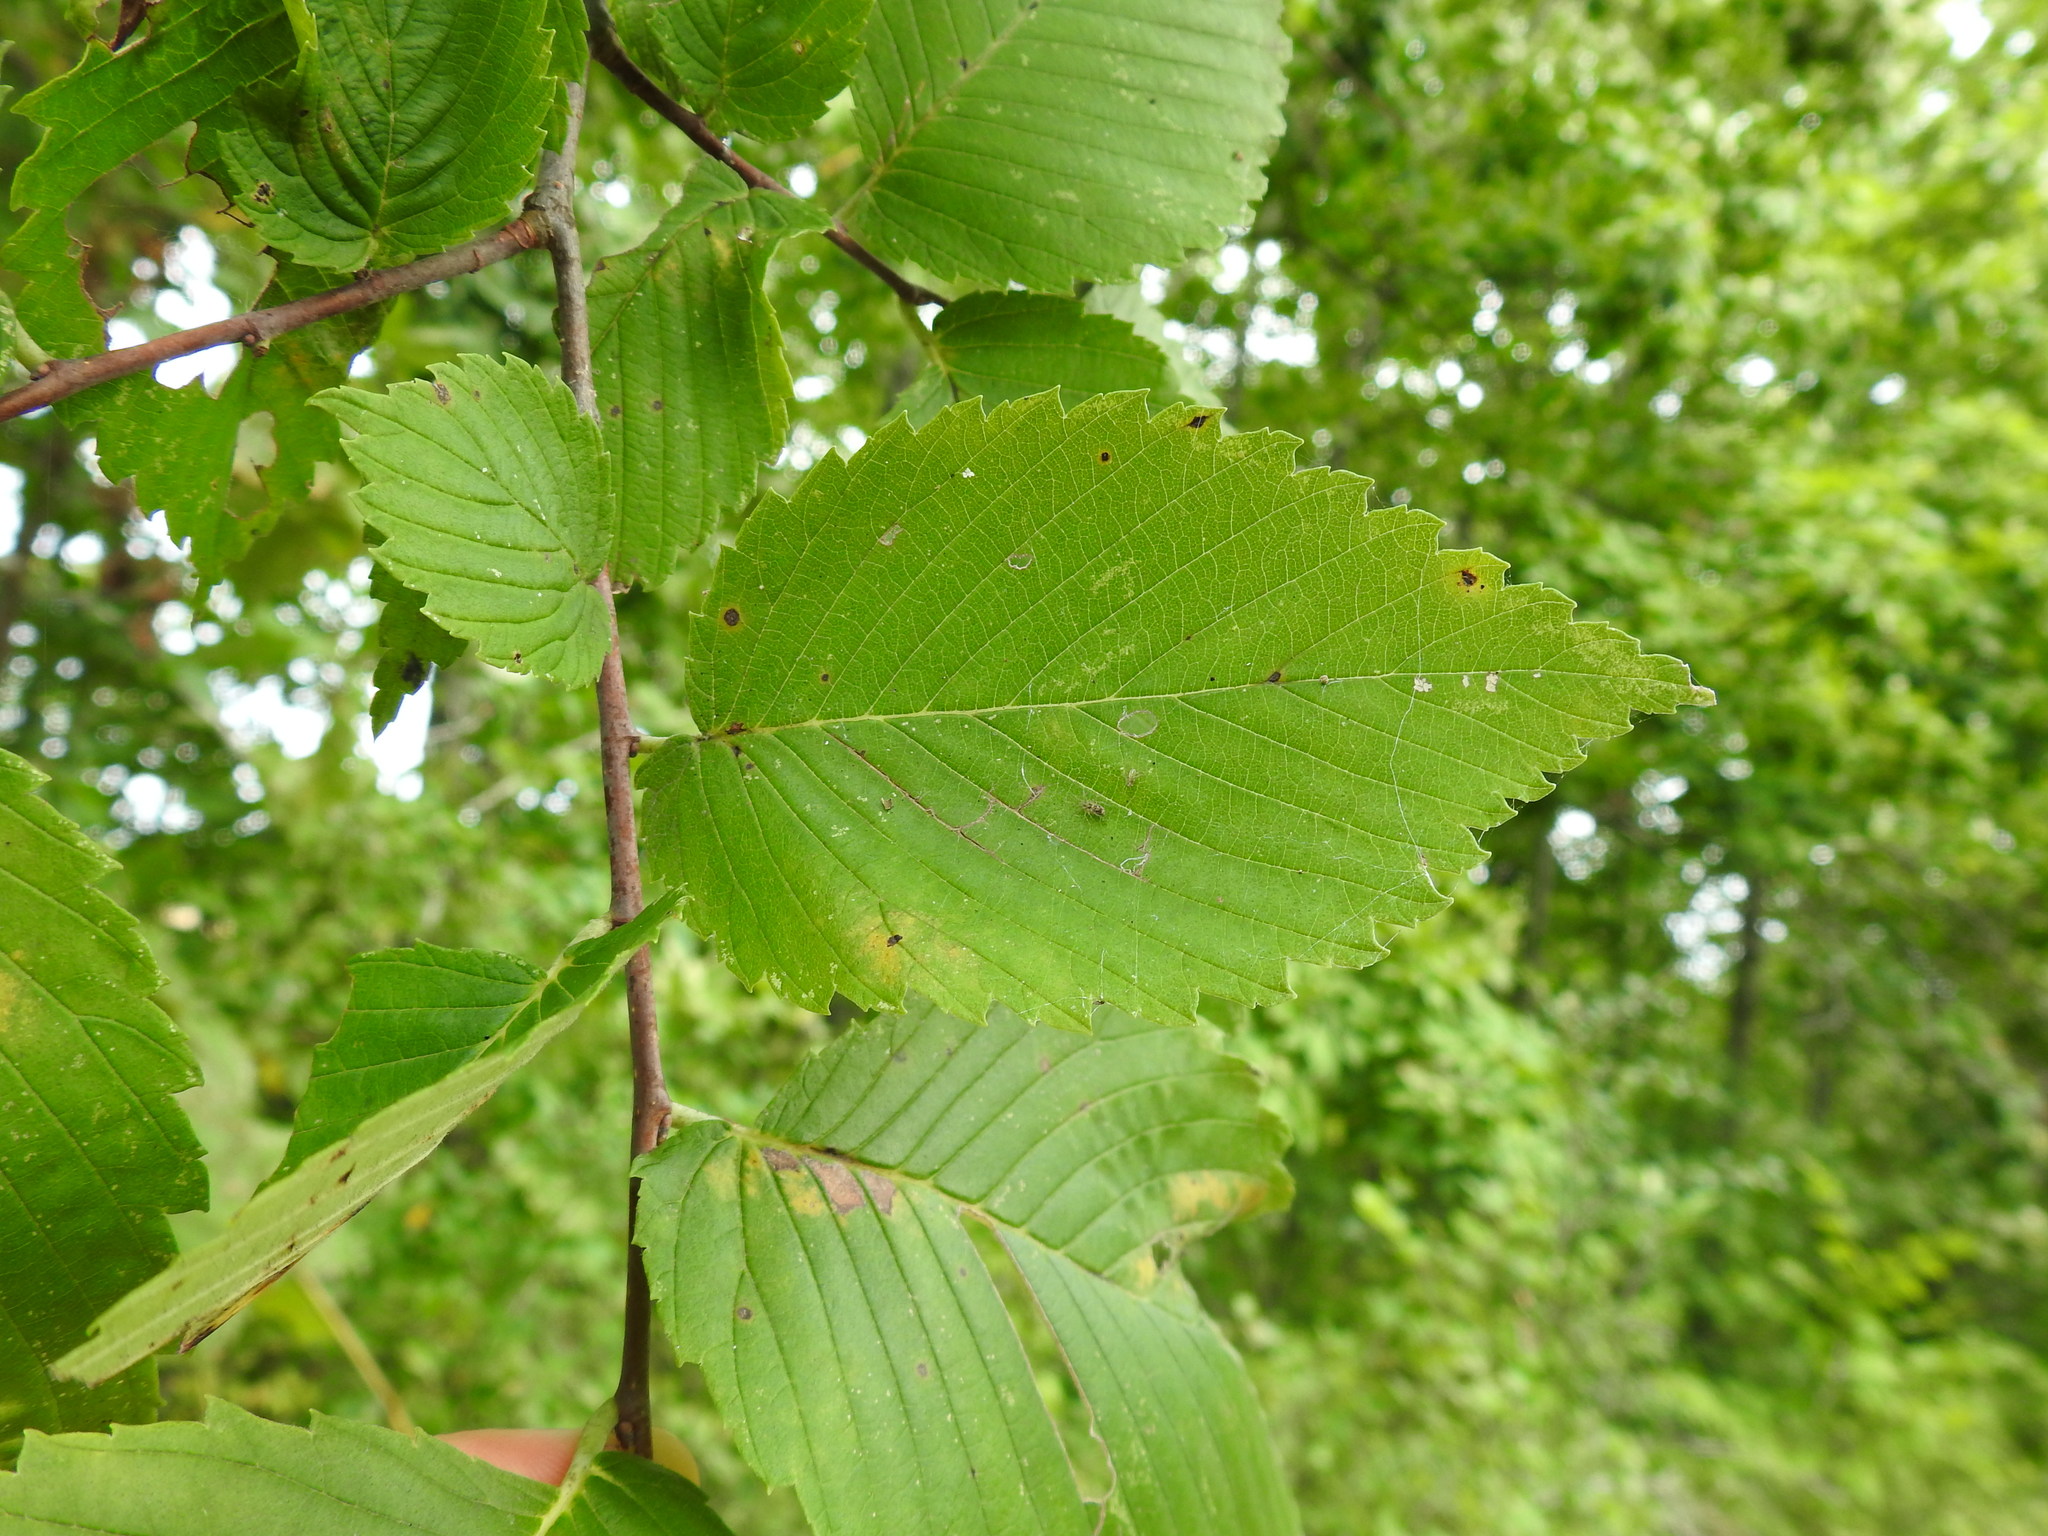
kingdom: Plantae
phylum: Tracheophyta
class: Magnoliopsida
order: Rosales
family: Ulmaceae
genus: Ulmus
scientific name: Ulmus americana
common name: American elm
